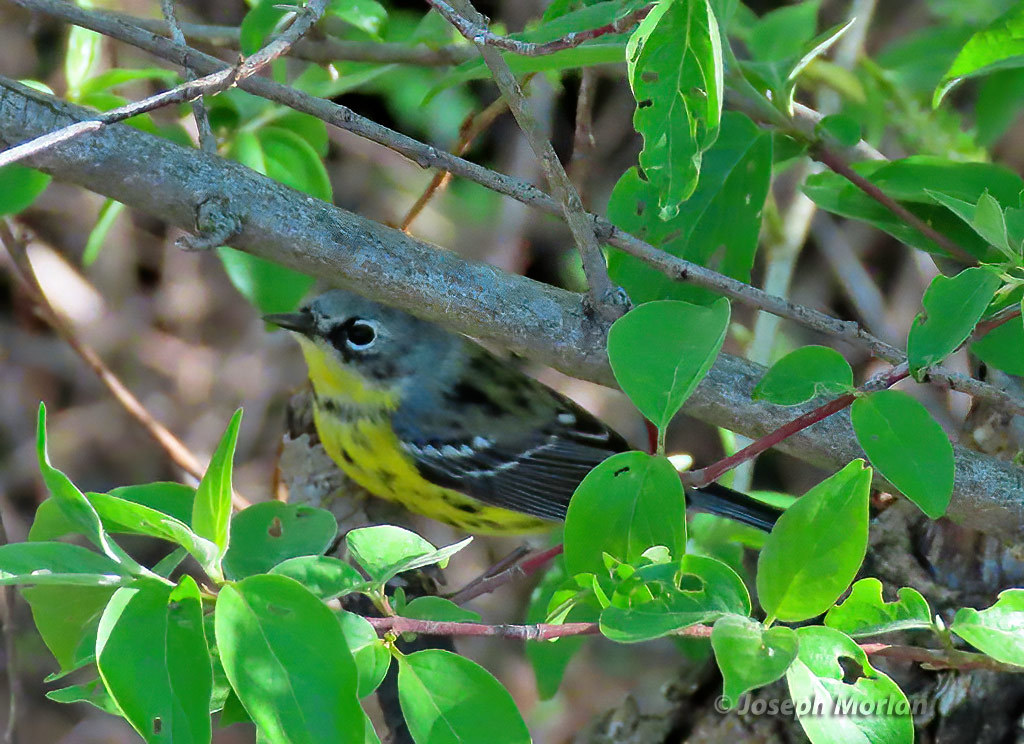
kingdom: Animalia
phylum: Chordata
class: Aves
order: Passeriformes
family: Parulidae
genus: Setophaga
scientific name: Setophaga magnolia
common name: Magnolia warbler
